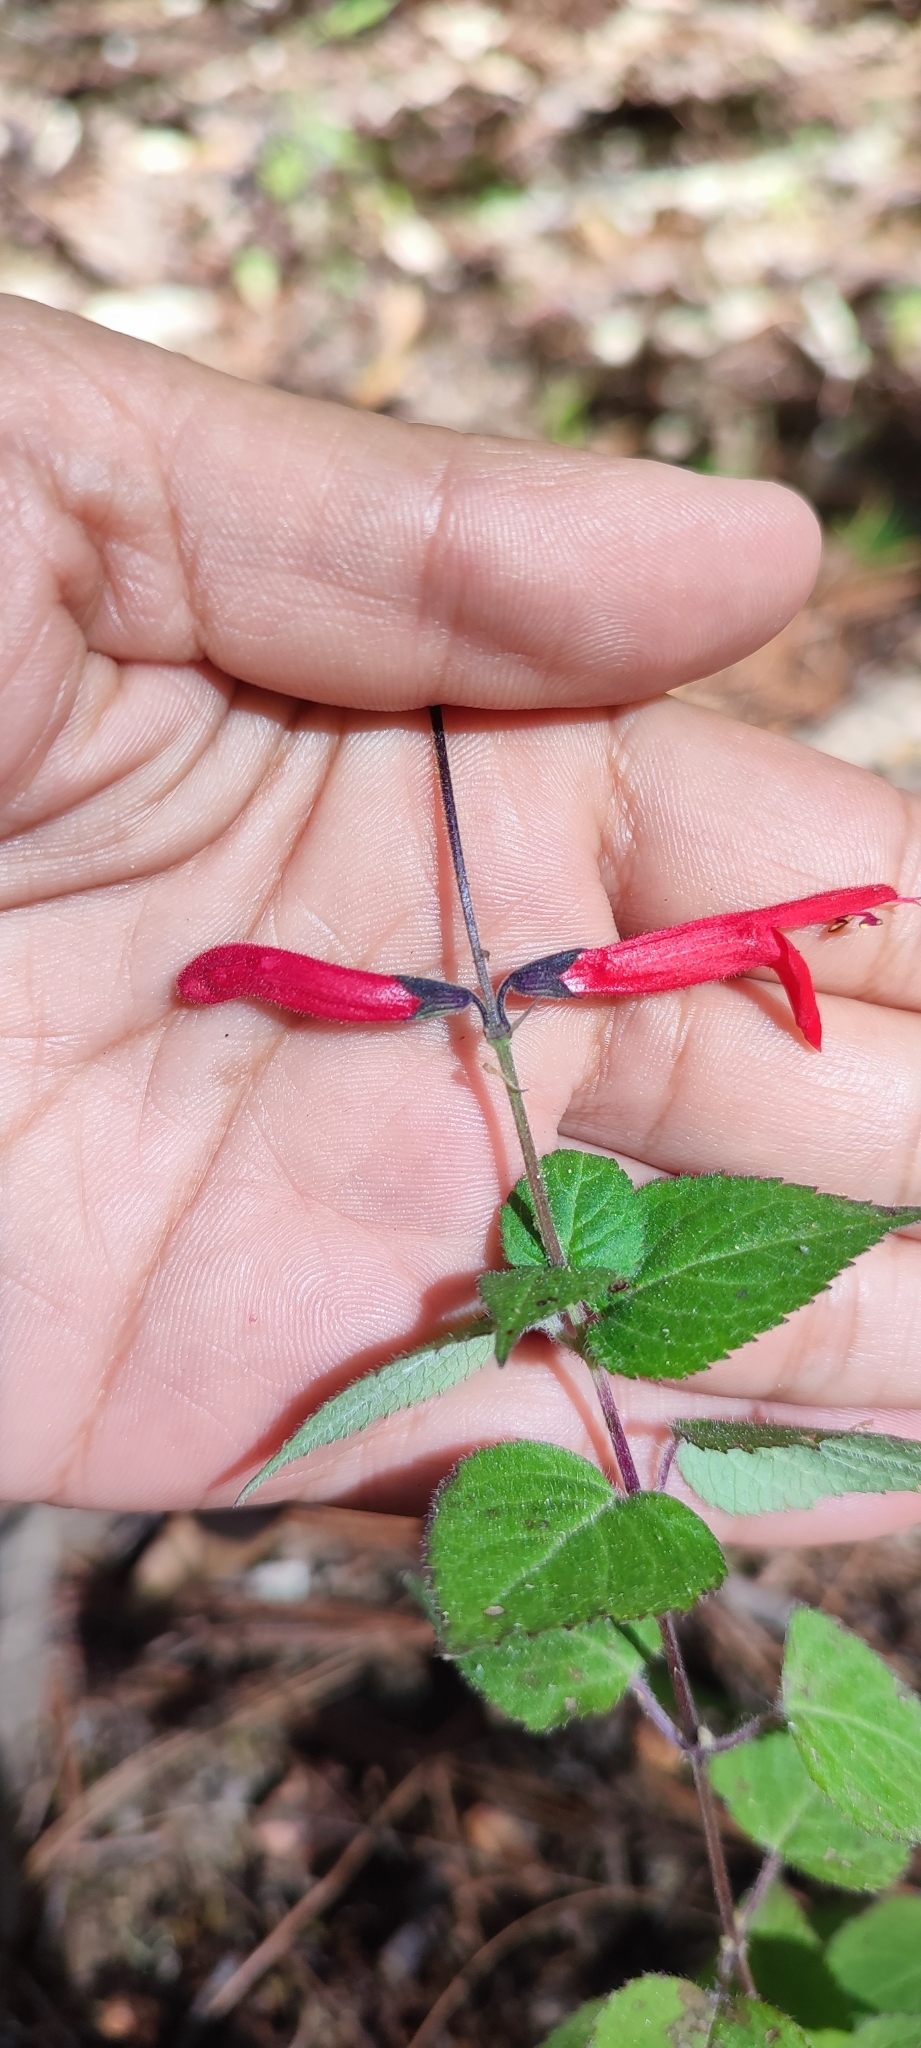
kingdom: Plantae
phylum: Tracheophyta
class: Magnoliopsida
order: Lamiales
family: Lamiaceae
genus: Salvia
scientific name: Salvia elegans
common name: Pineapple sage
